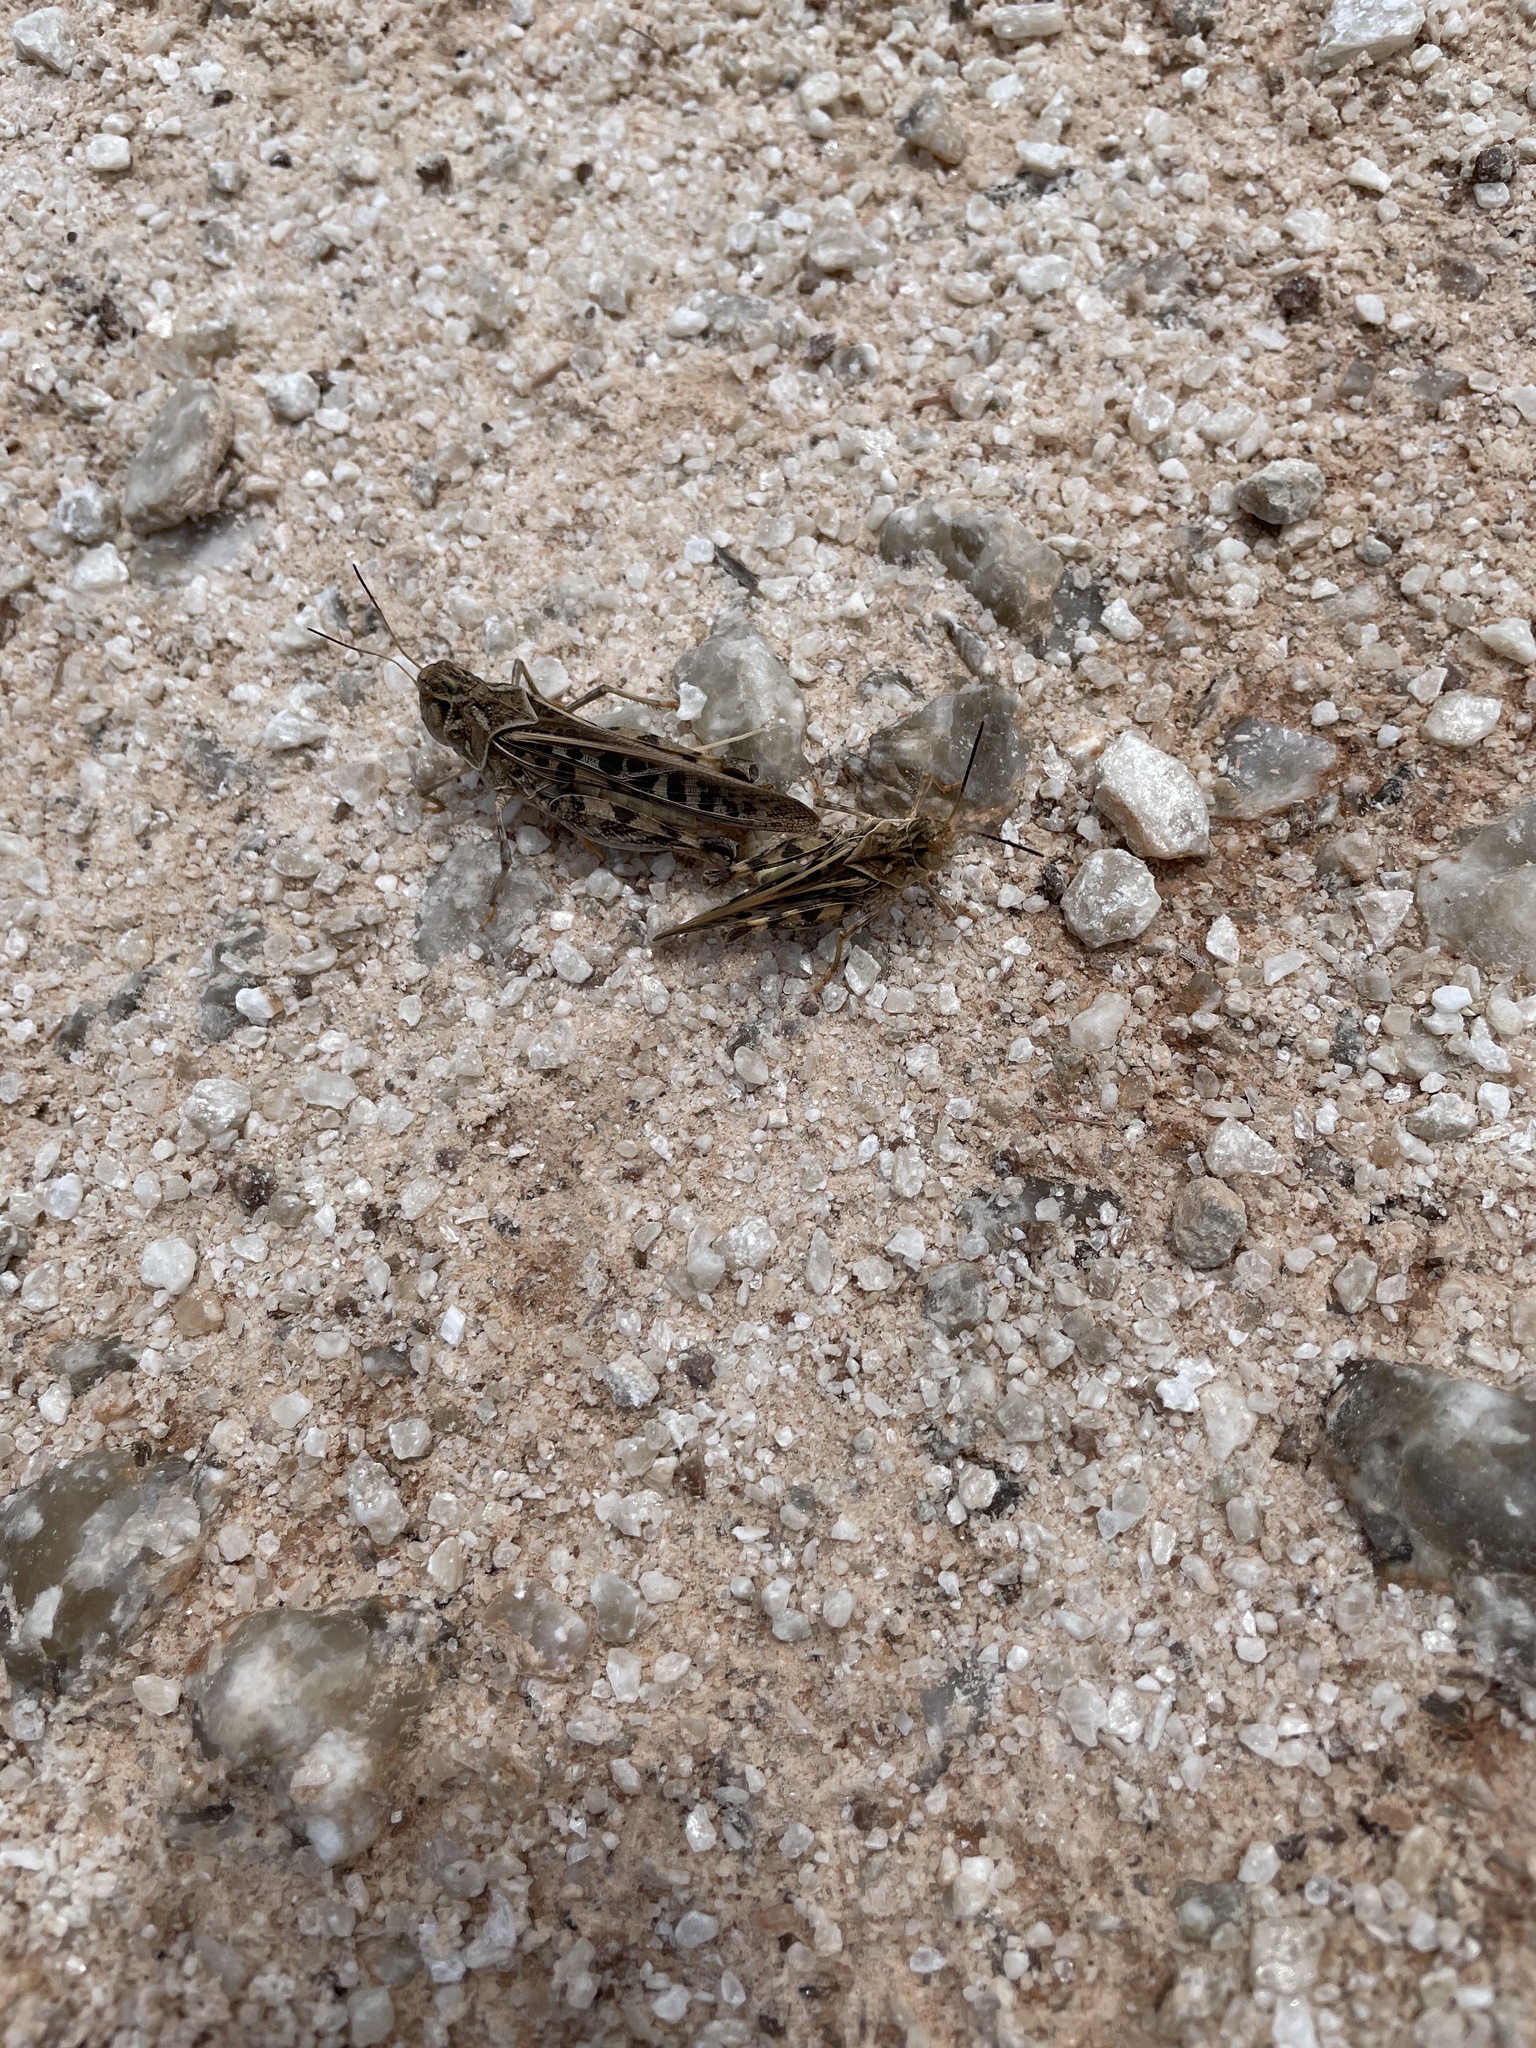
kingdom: Animalia
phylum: Arthropoda
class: Insecta
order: Orthoptera
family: Acrididae
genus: Pardalophora
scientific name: Pardalophora saussurei
